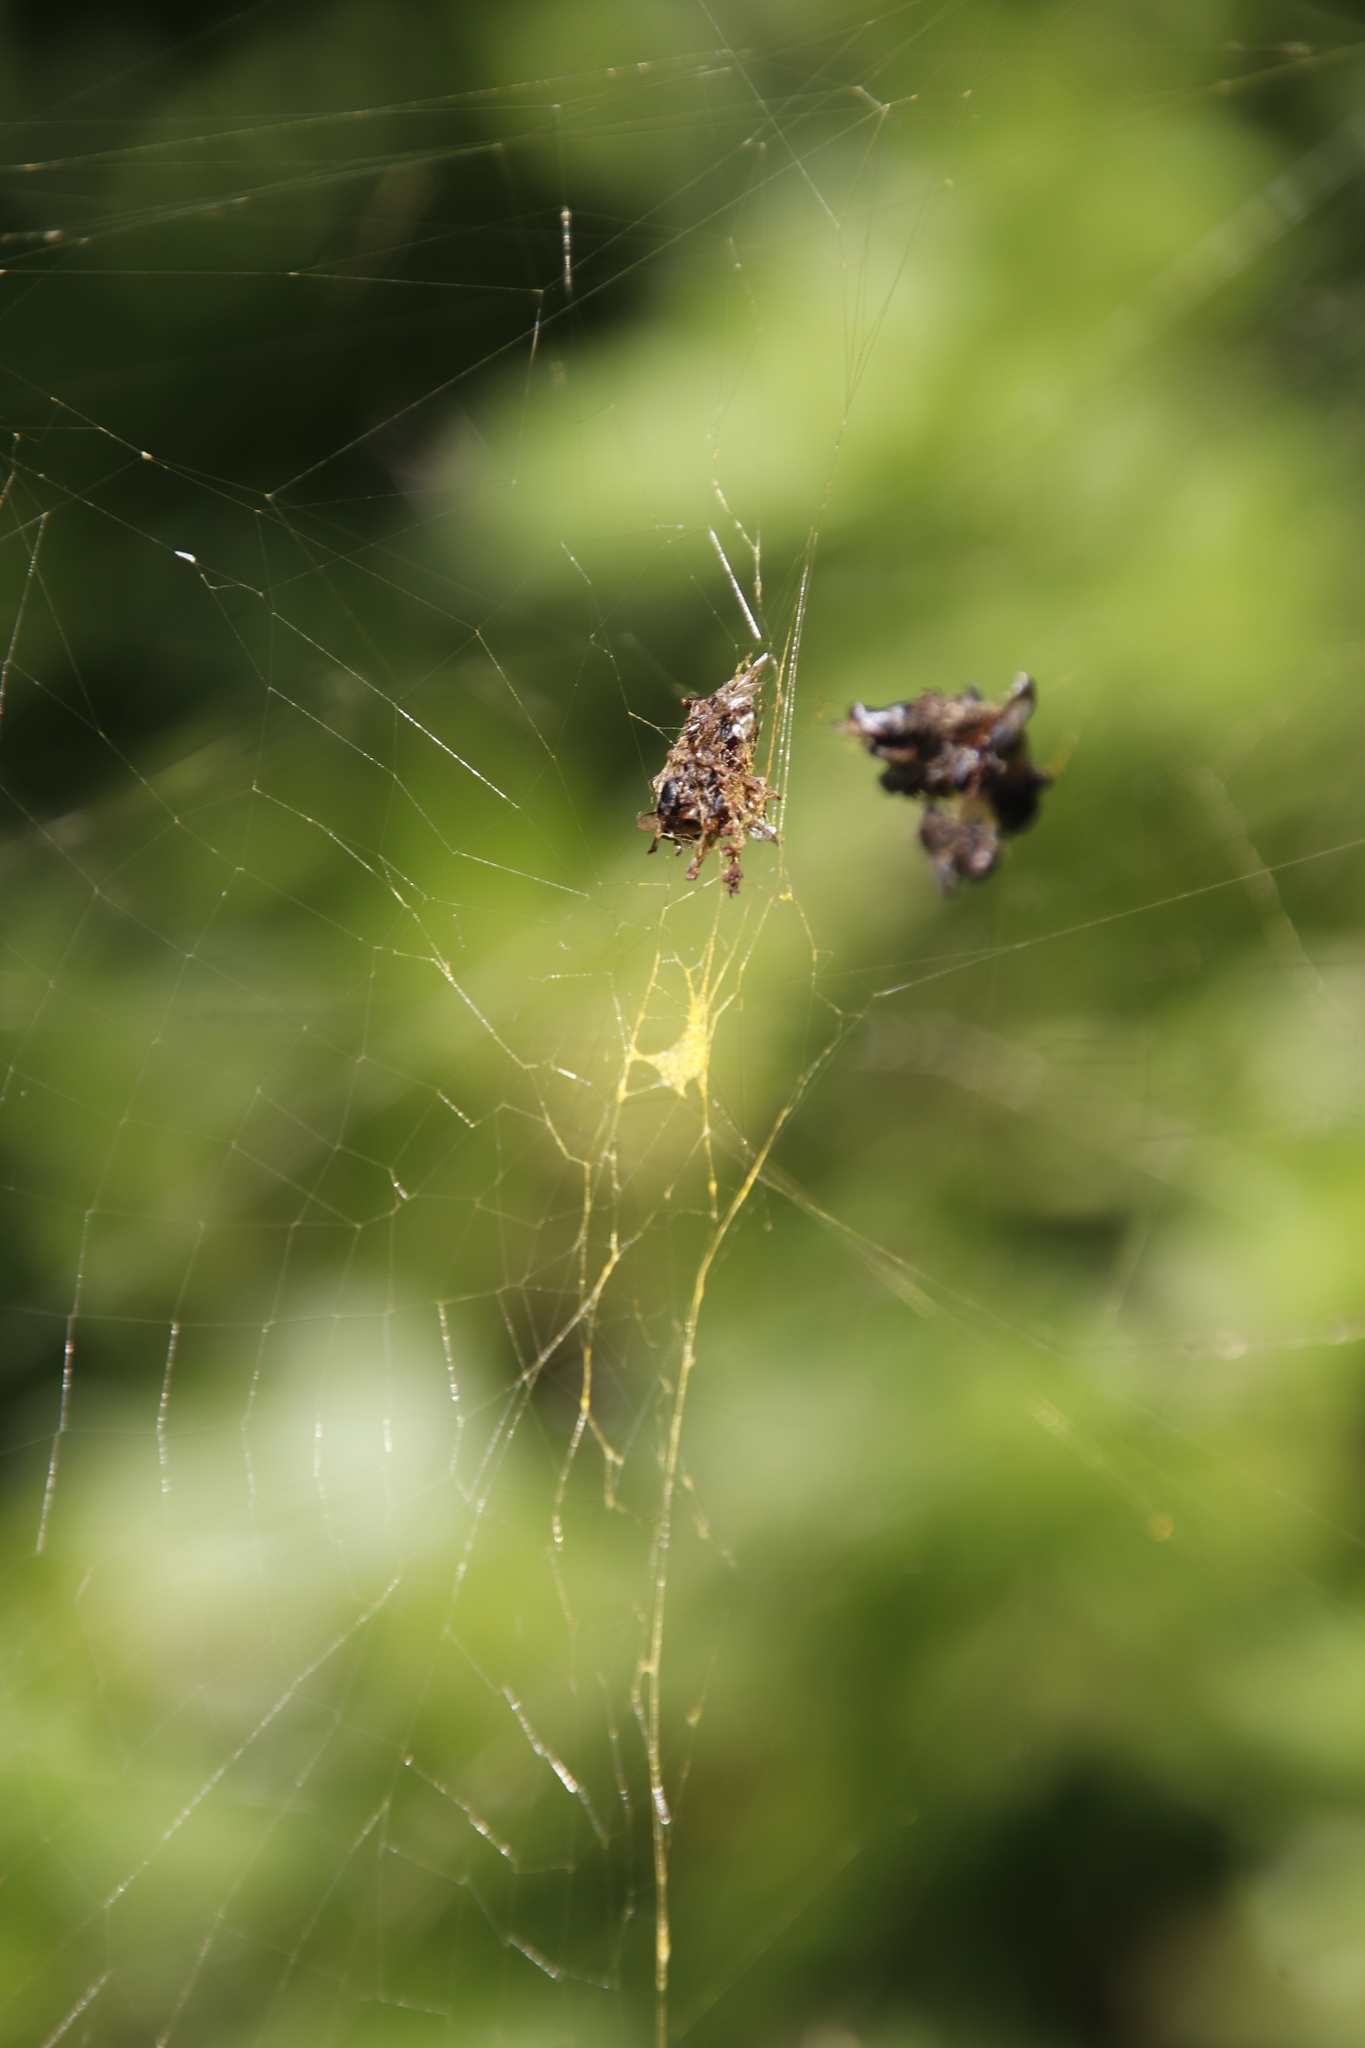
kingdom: Animalia
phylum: Arthropoda
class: Arachnida
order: Araneae
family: Araneidae
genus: Trichonephila
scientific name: Trichonephila fenestrata
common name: Hairy golden orb weaver
